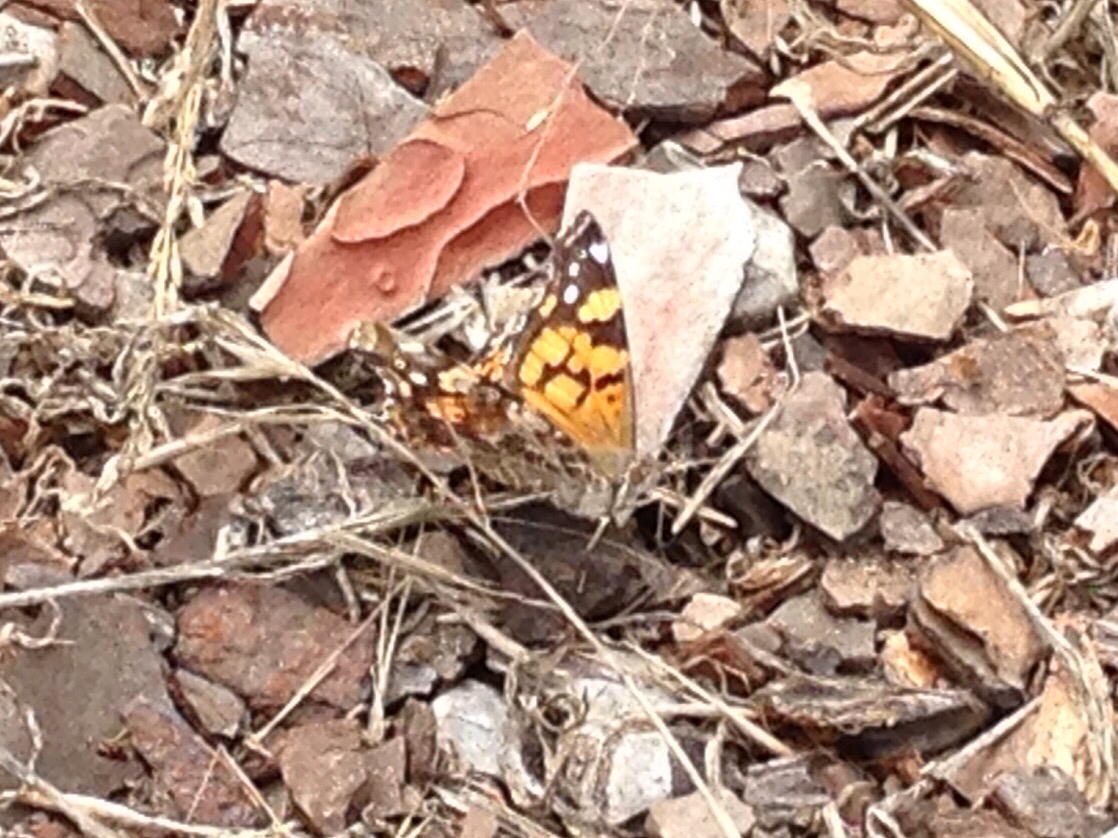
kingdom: Animalia
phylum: Arthropoda
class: Insecta
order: Lepidoptera
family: Nymphalidae
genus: Vanessa
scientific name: Vanessa annabella
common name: West coast lady
